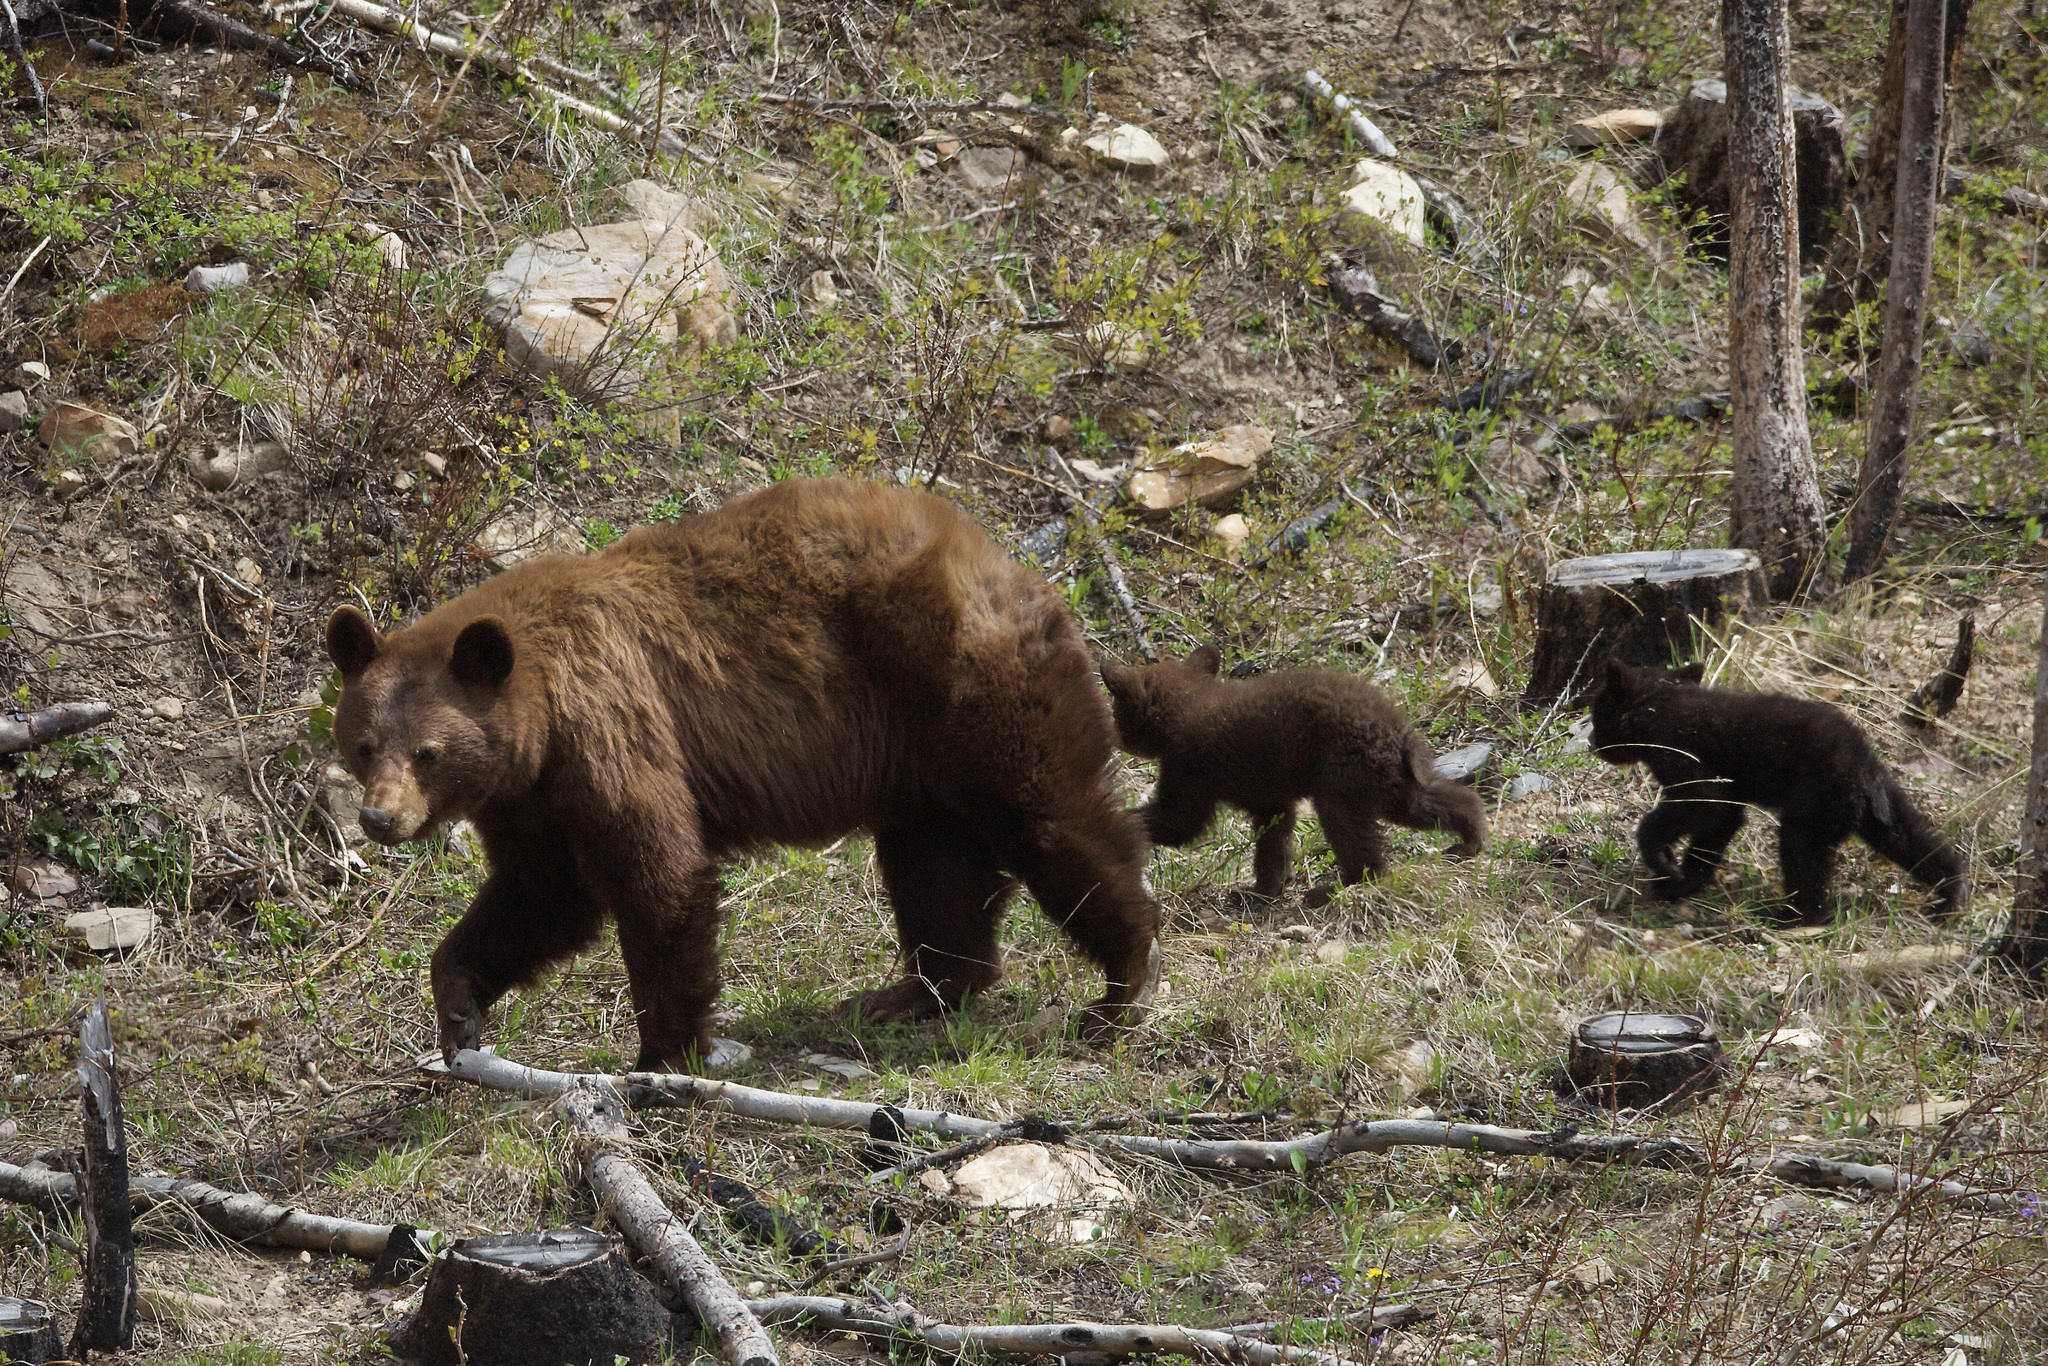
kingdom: Animalia
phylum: Chordata
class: Mammalia
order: Carnivora
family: Ursidae
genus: Ursus
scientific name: Ursus americanus
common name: American black bear
